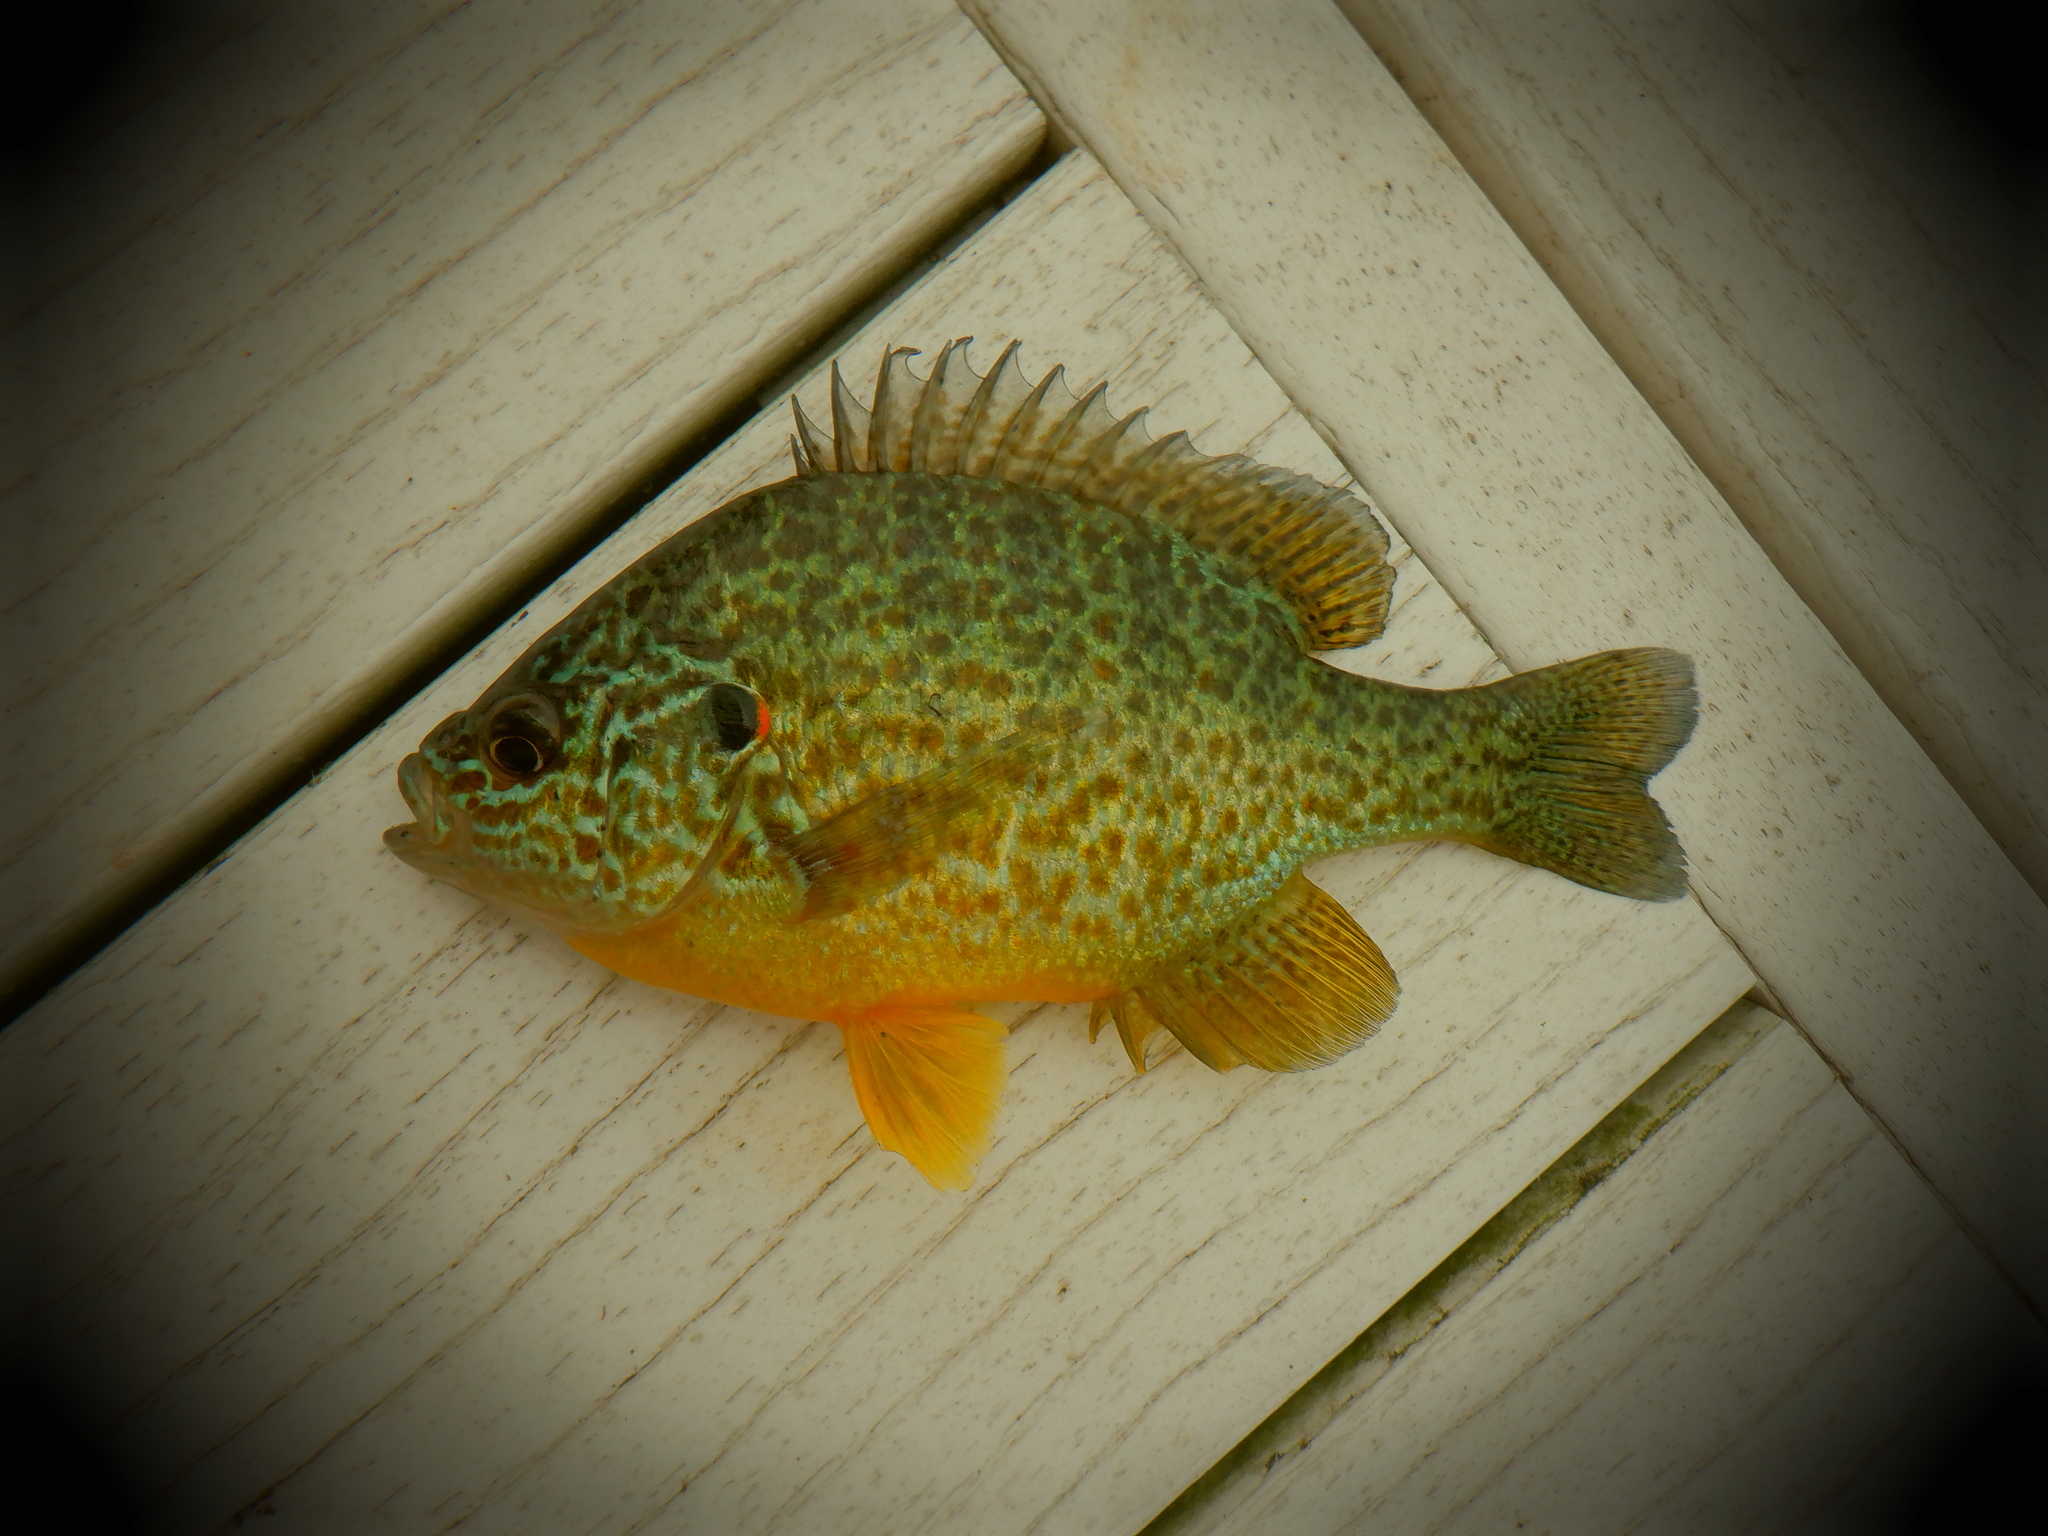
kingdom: Animalia
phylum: Chordata
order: Perciformes
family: Centrarchidae
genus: Lepomis
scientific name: Lepomis gibbosus
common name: Pumpkinseed
